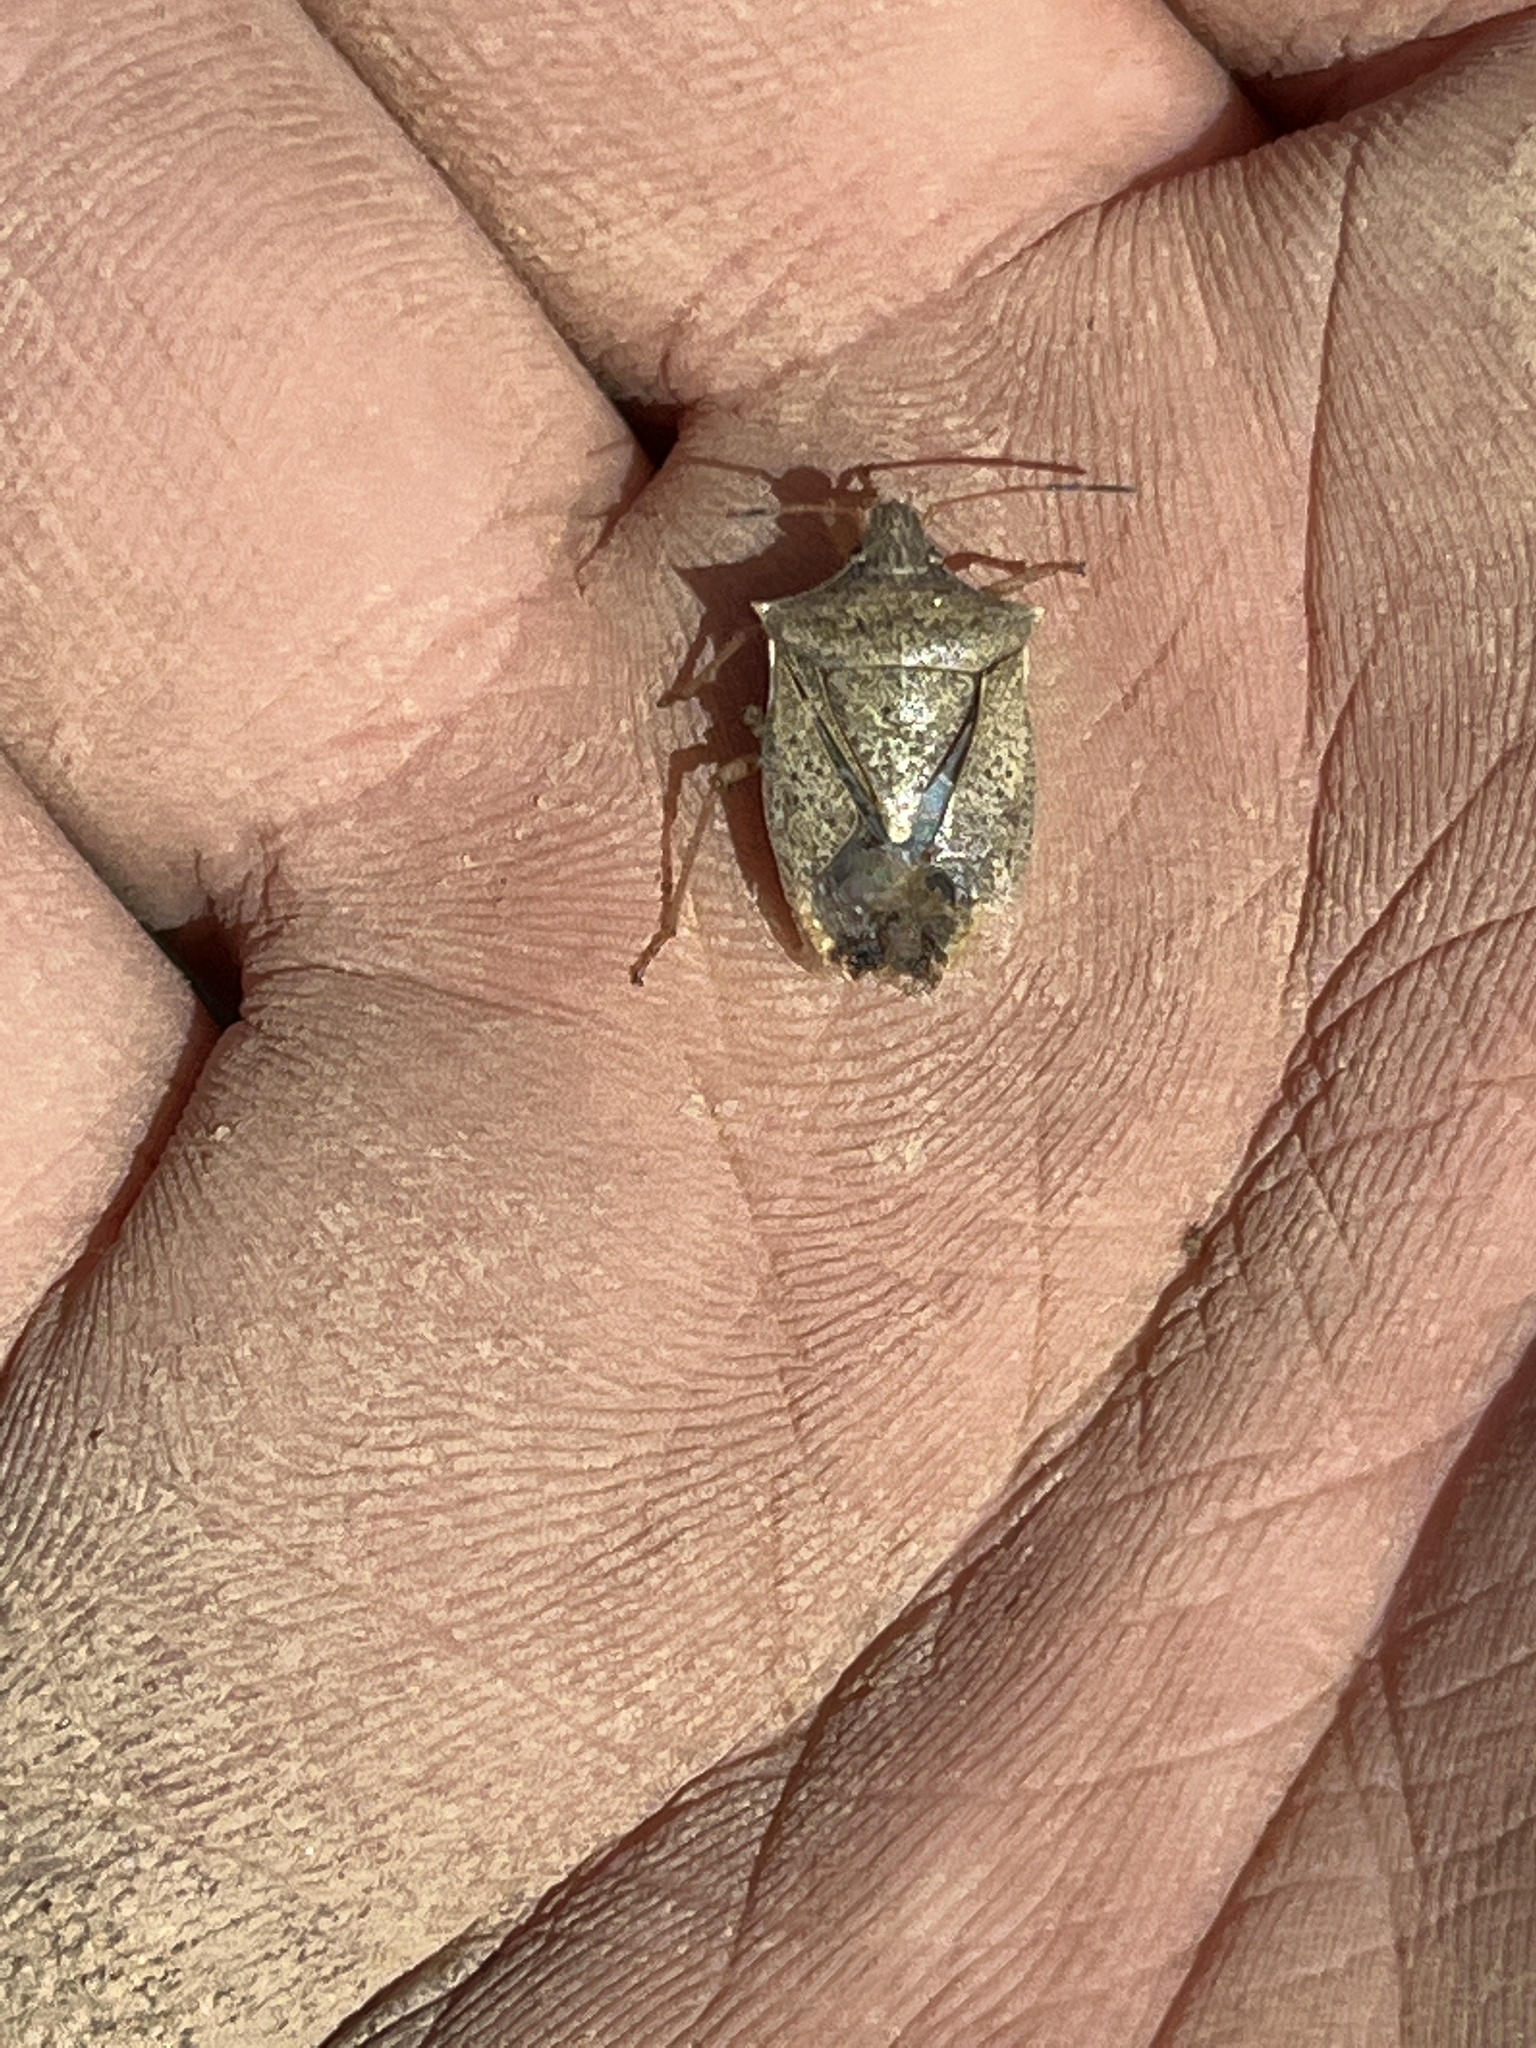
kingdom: Animalia
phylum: Arthropoda
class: Insecta
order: Hemiptera
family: Pentatomidae
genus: Euschistus
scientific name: Euschistus servus
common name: Brown stink bug
